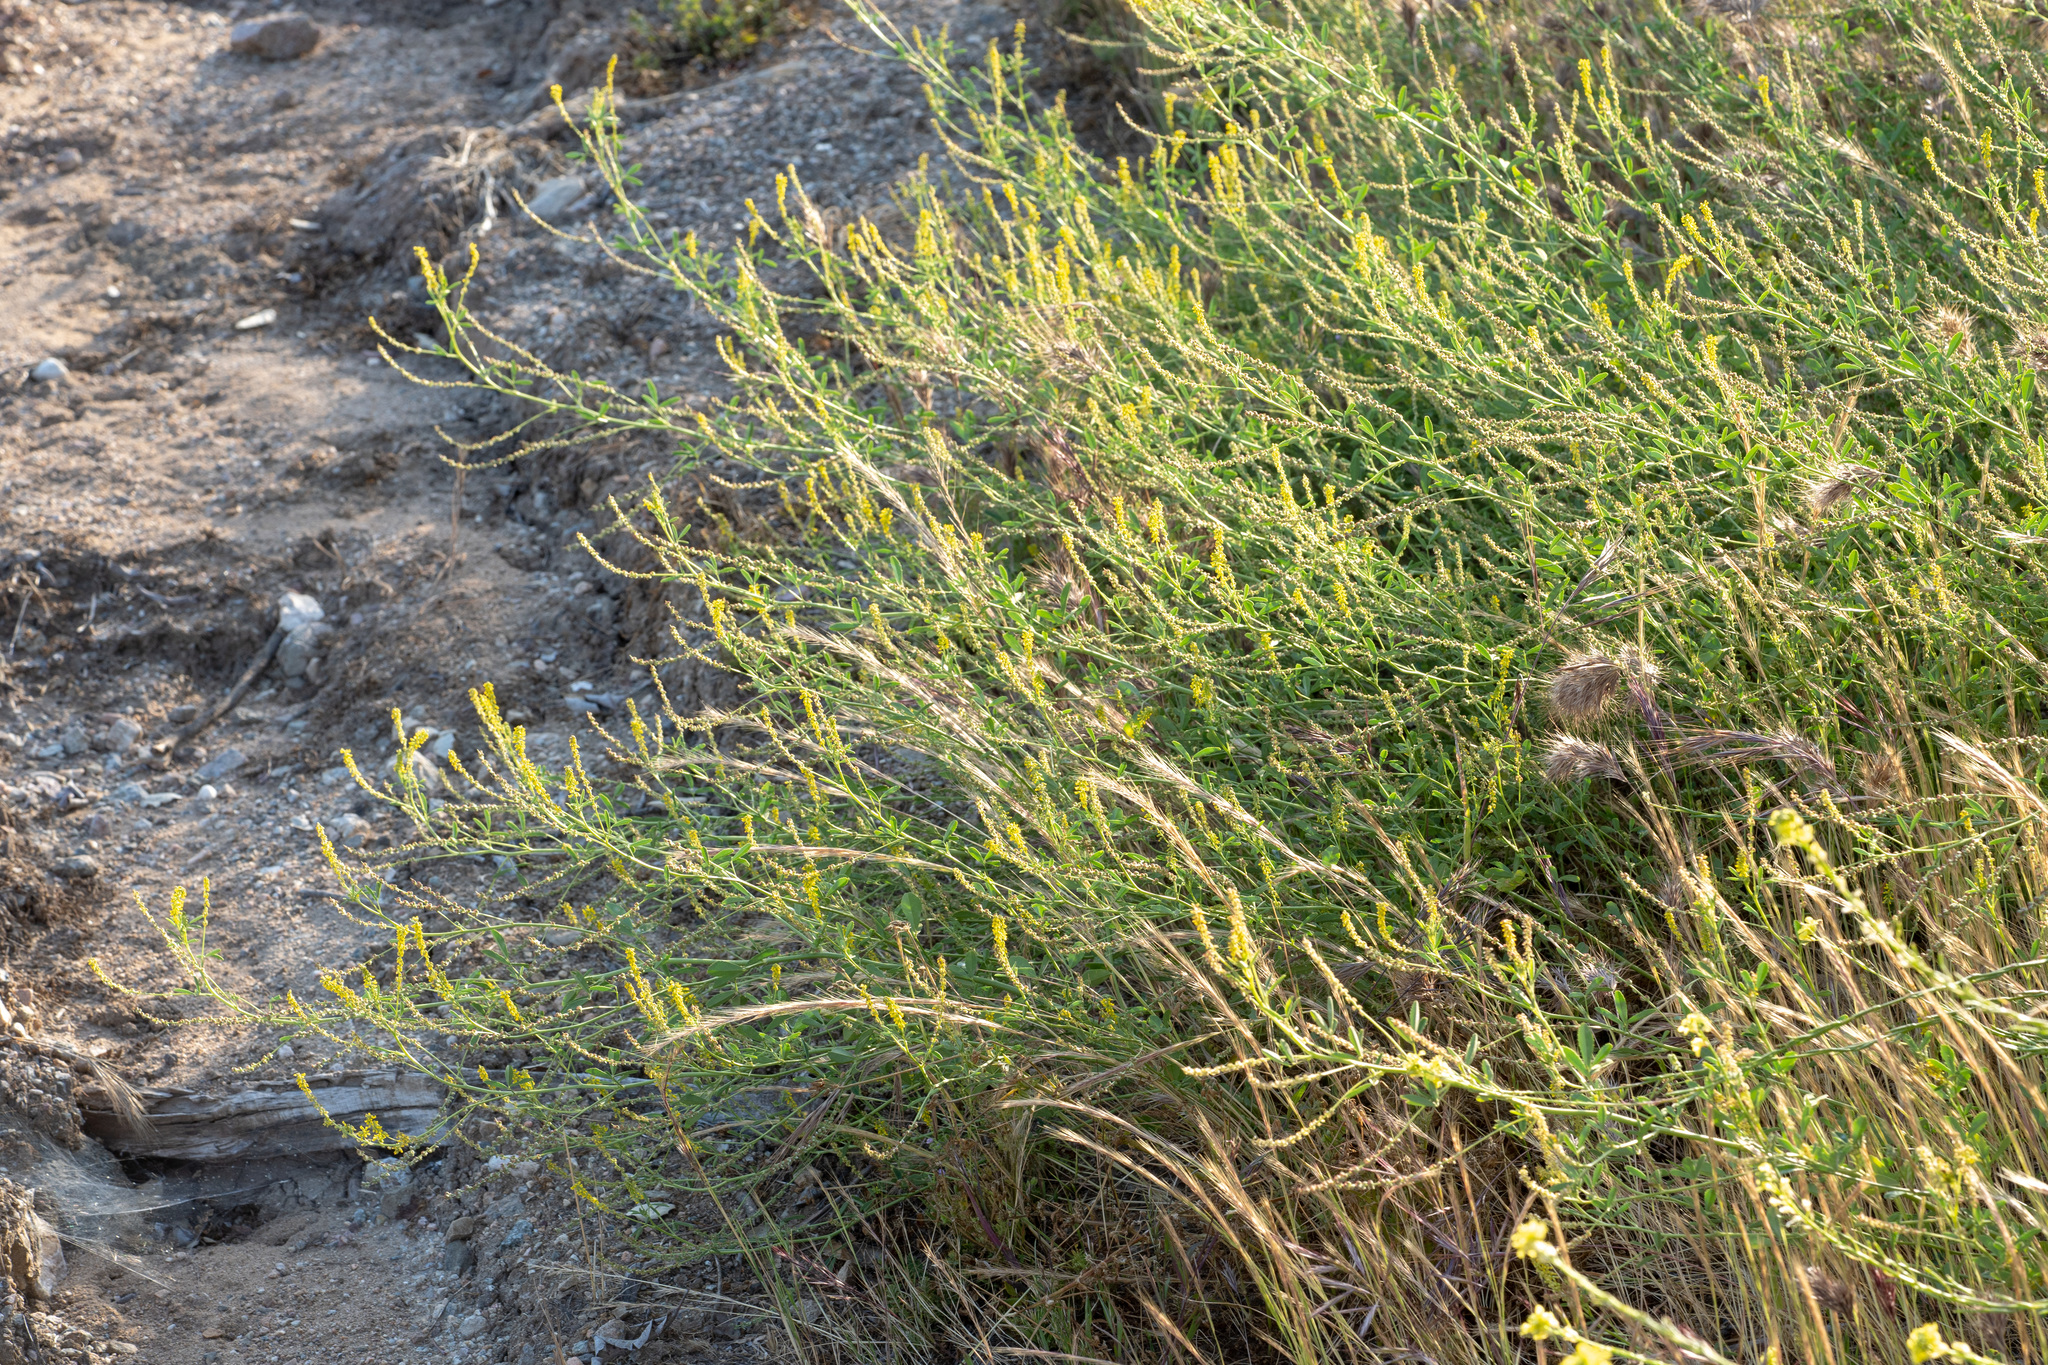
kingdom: Plantae
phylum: Tracheophyta
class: Magnoliopsida
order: Fabales
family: Fabaceae
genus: Melilotus
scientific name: Melilotus indicus
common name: Small melilot
